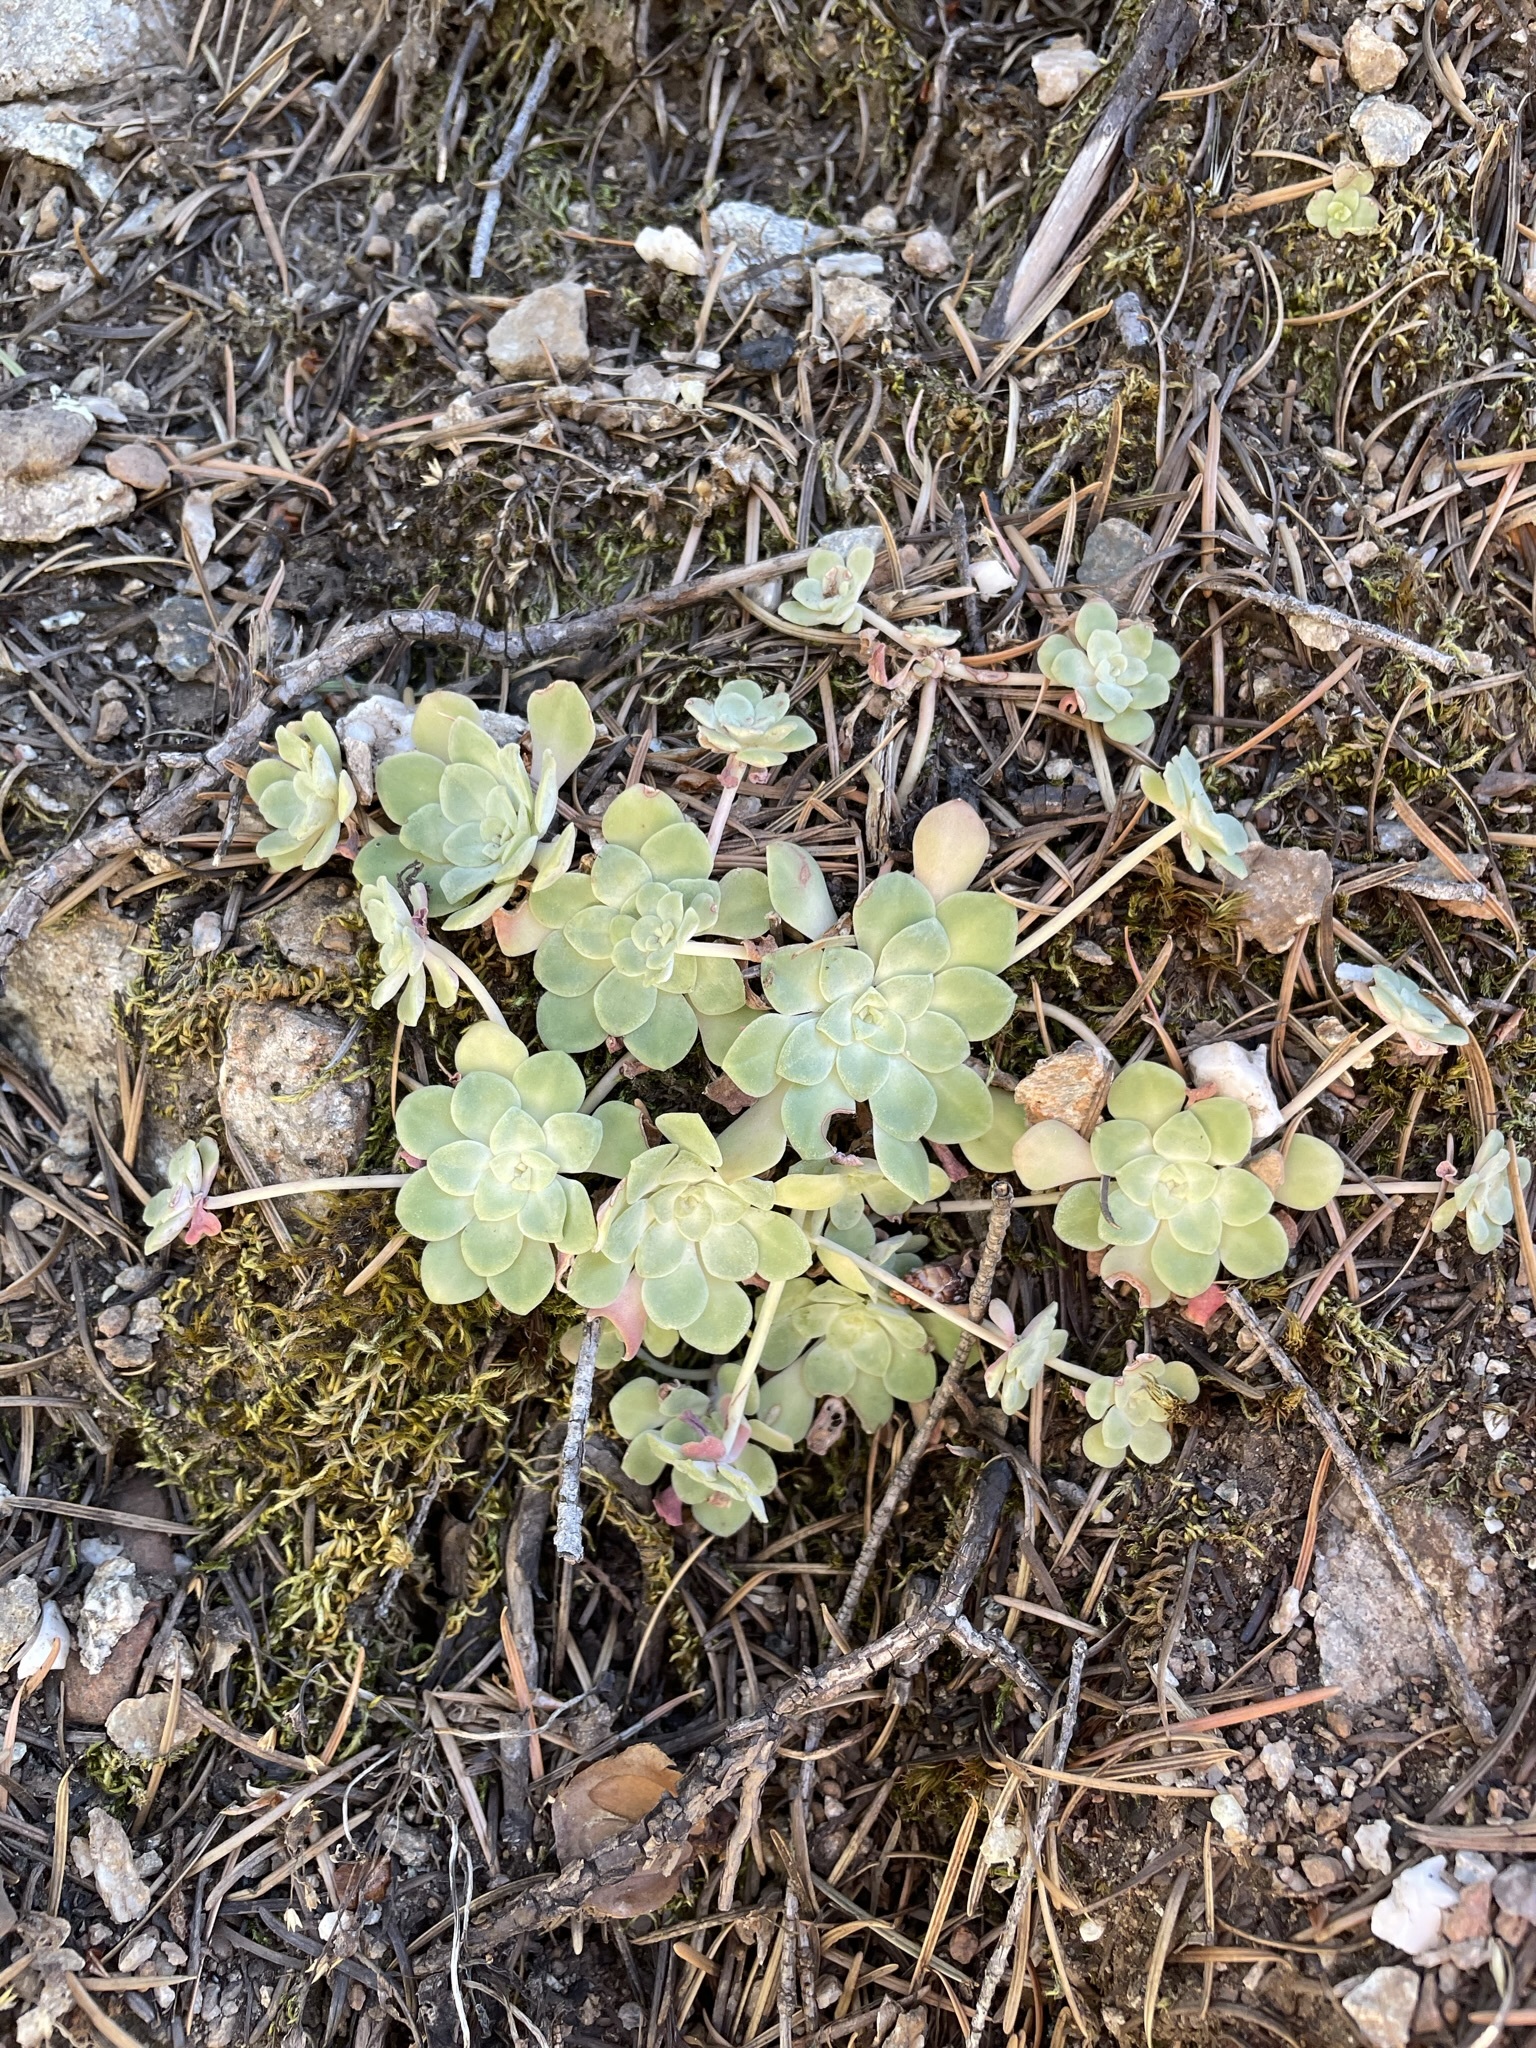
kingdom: Plantae
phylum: Tracheophyta
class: Magnoliopsida
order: Saxifragales
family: Crassulaceae
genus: Sedum
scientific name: Sedum spathulifolium
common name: Colorado stonecrop
